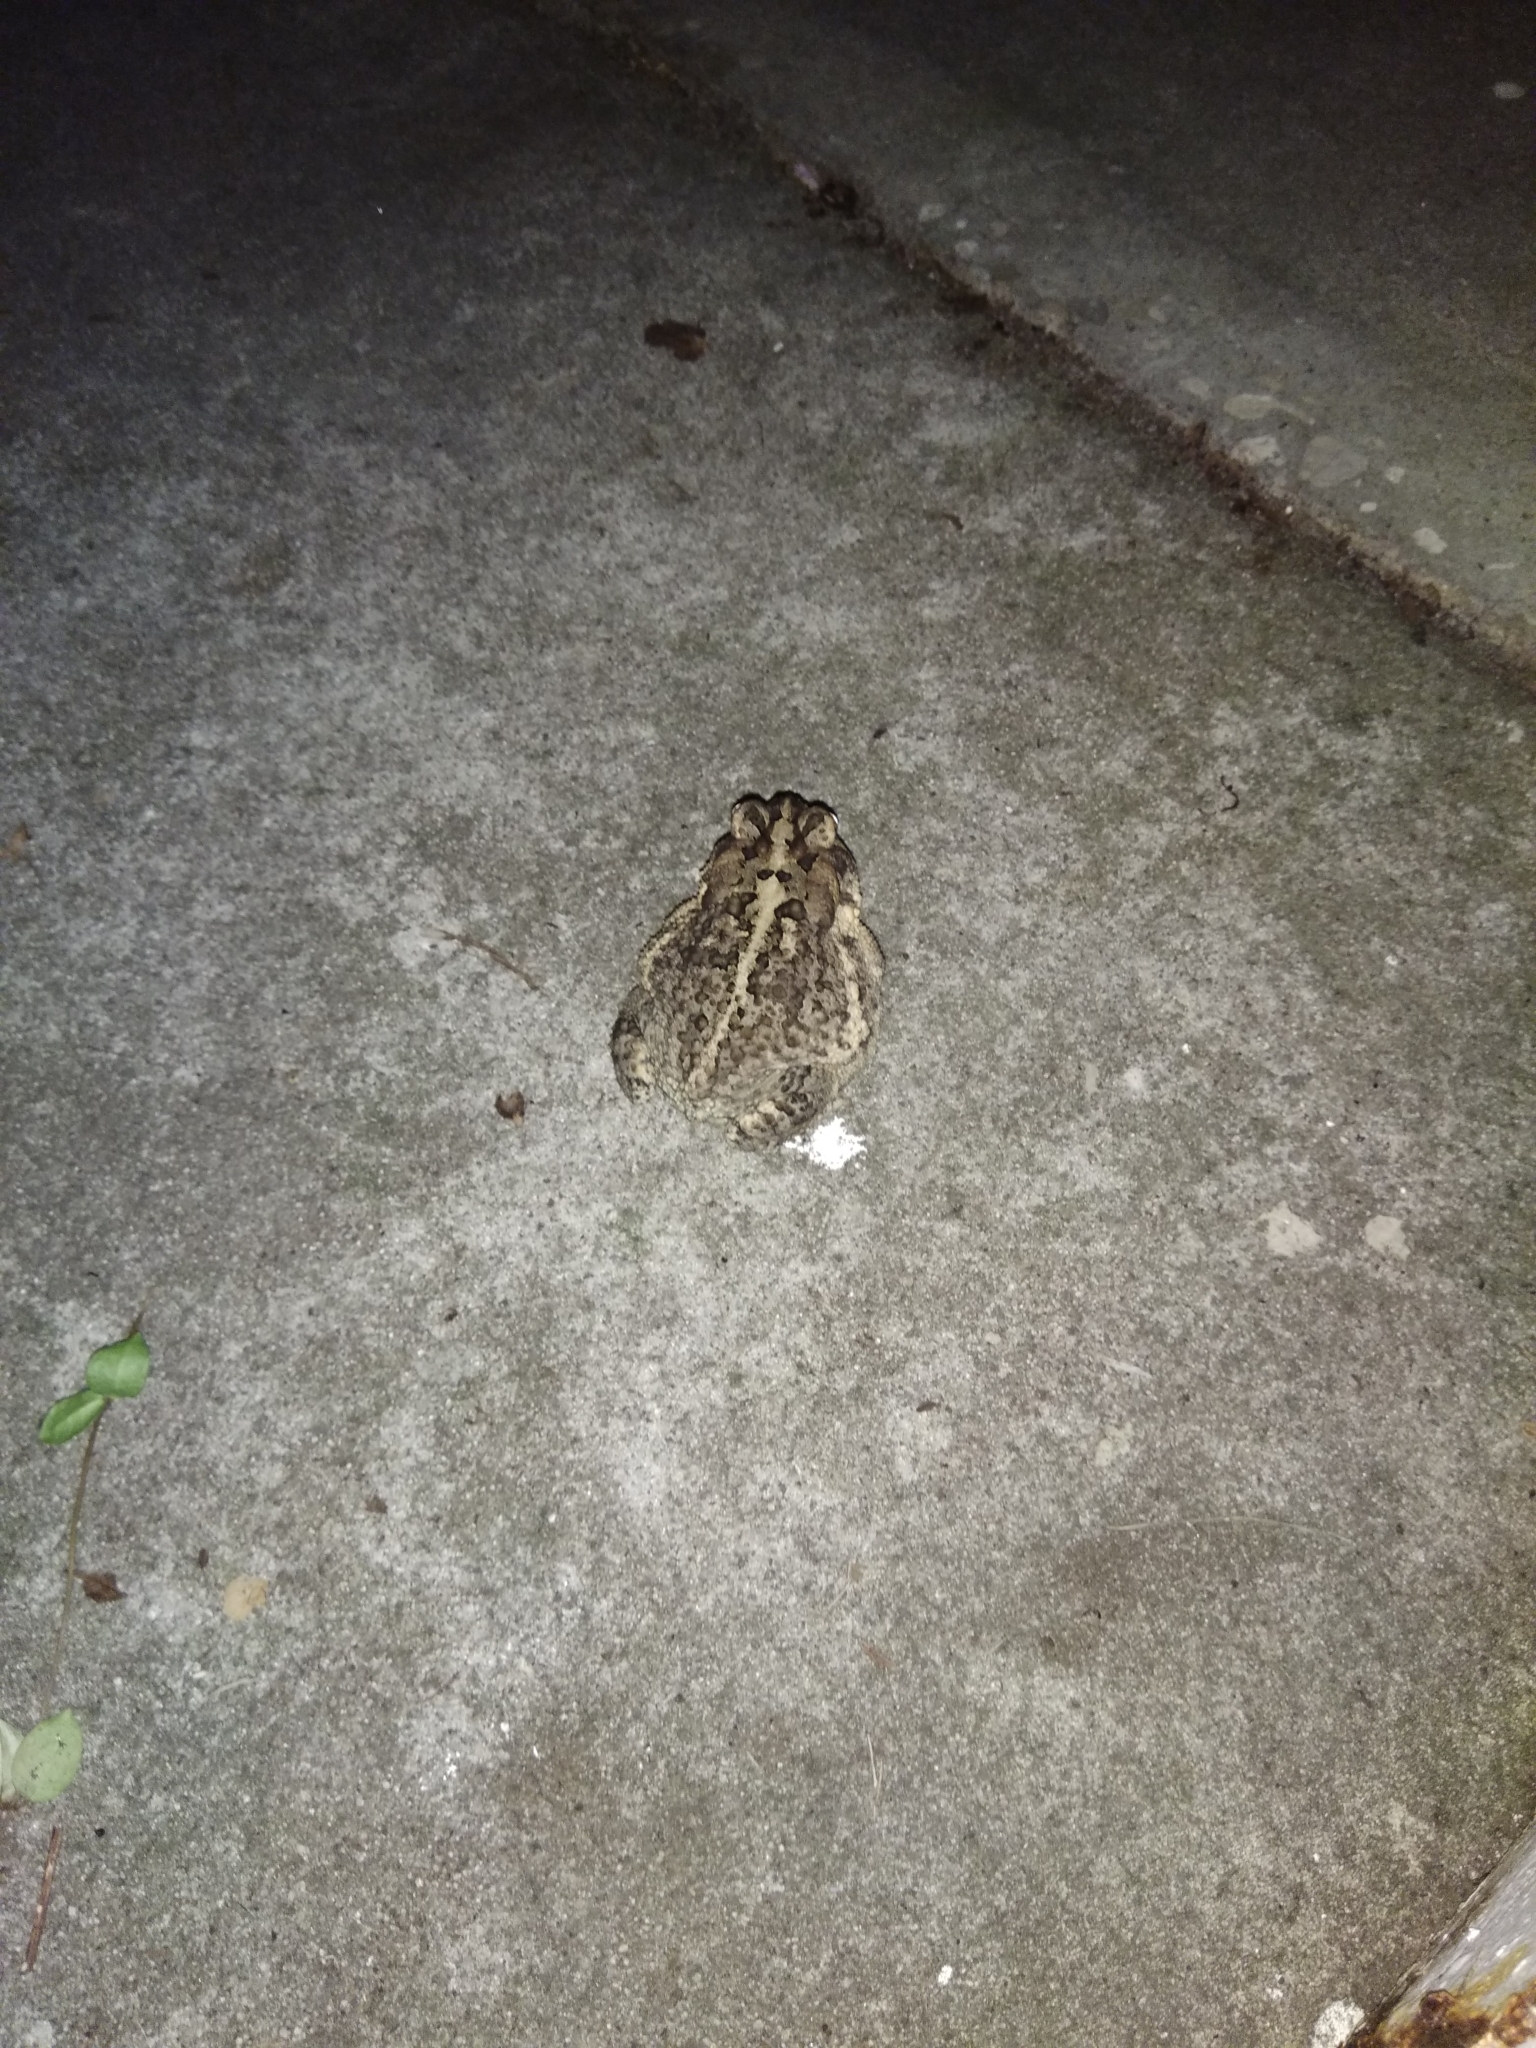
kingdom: Animalia
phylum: Chordata
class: Amphibia
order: Anura
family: Bufonidae
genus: Anaxyrus
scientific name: Anaxyrus terrestris
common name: Southern toad
